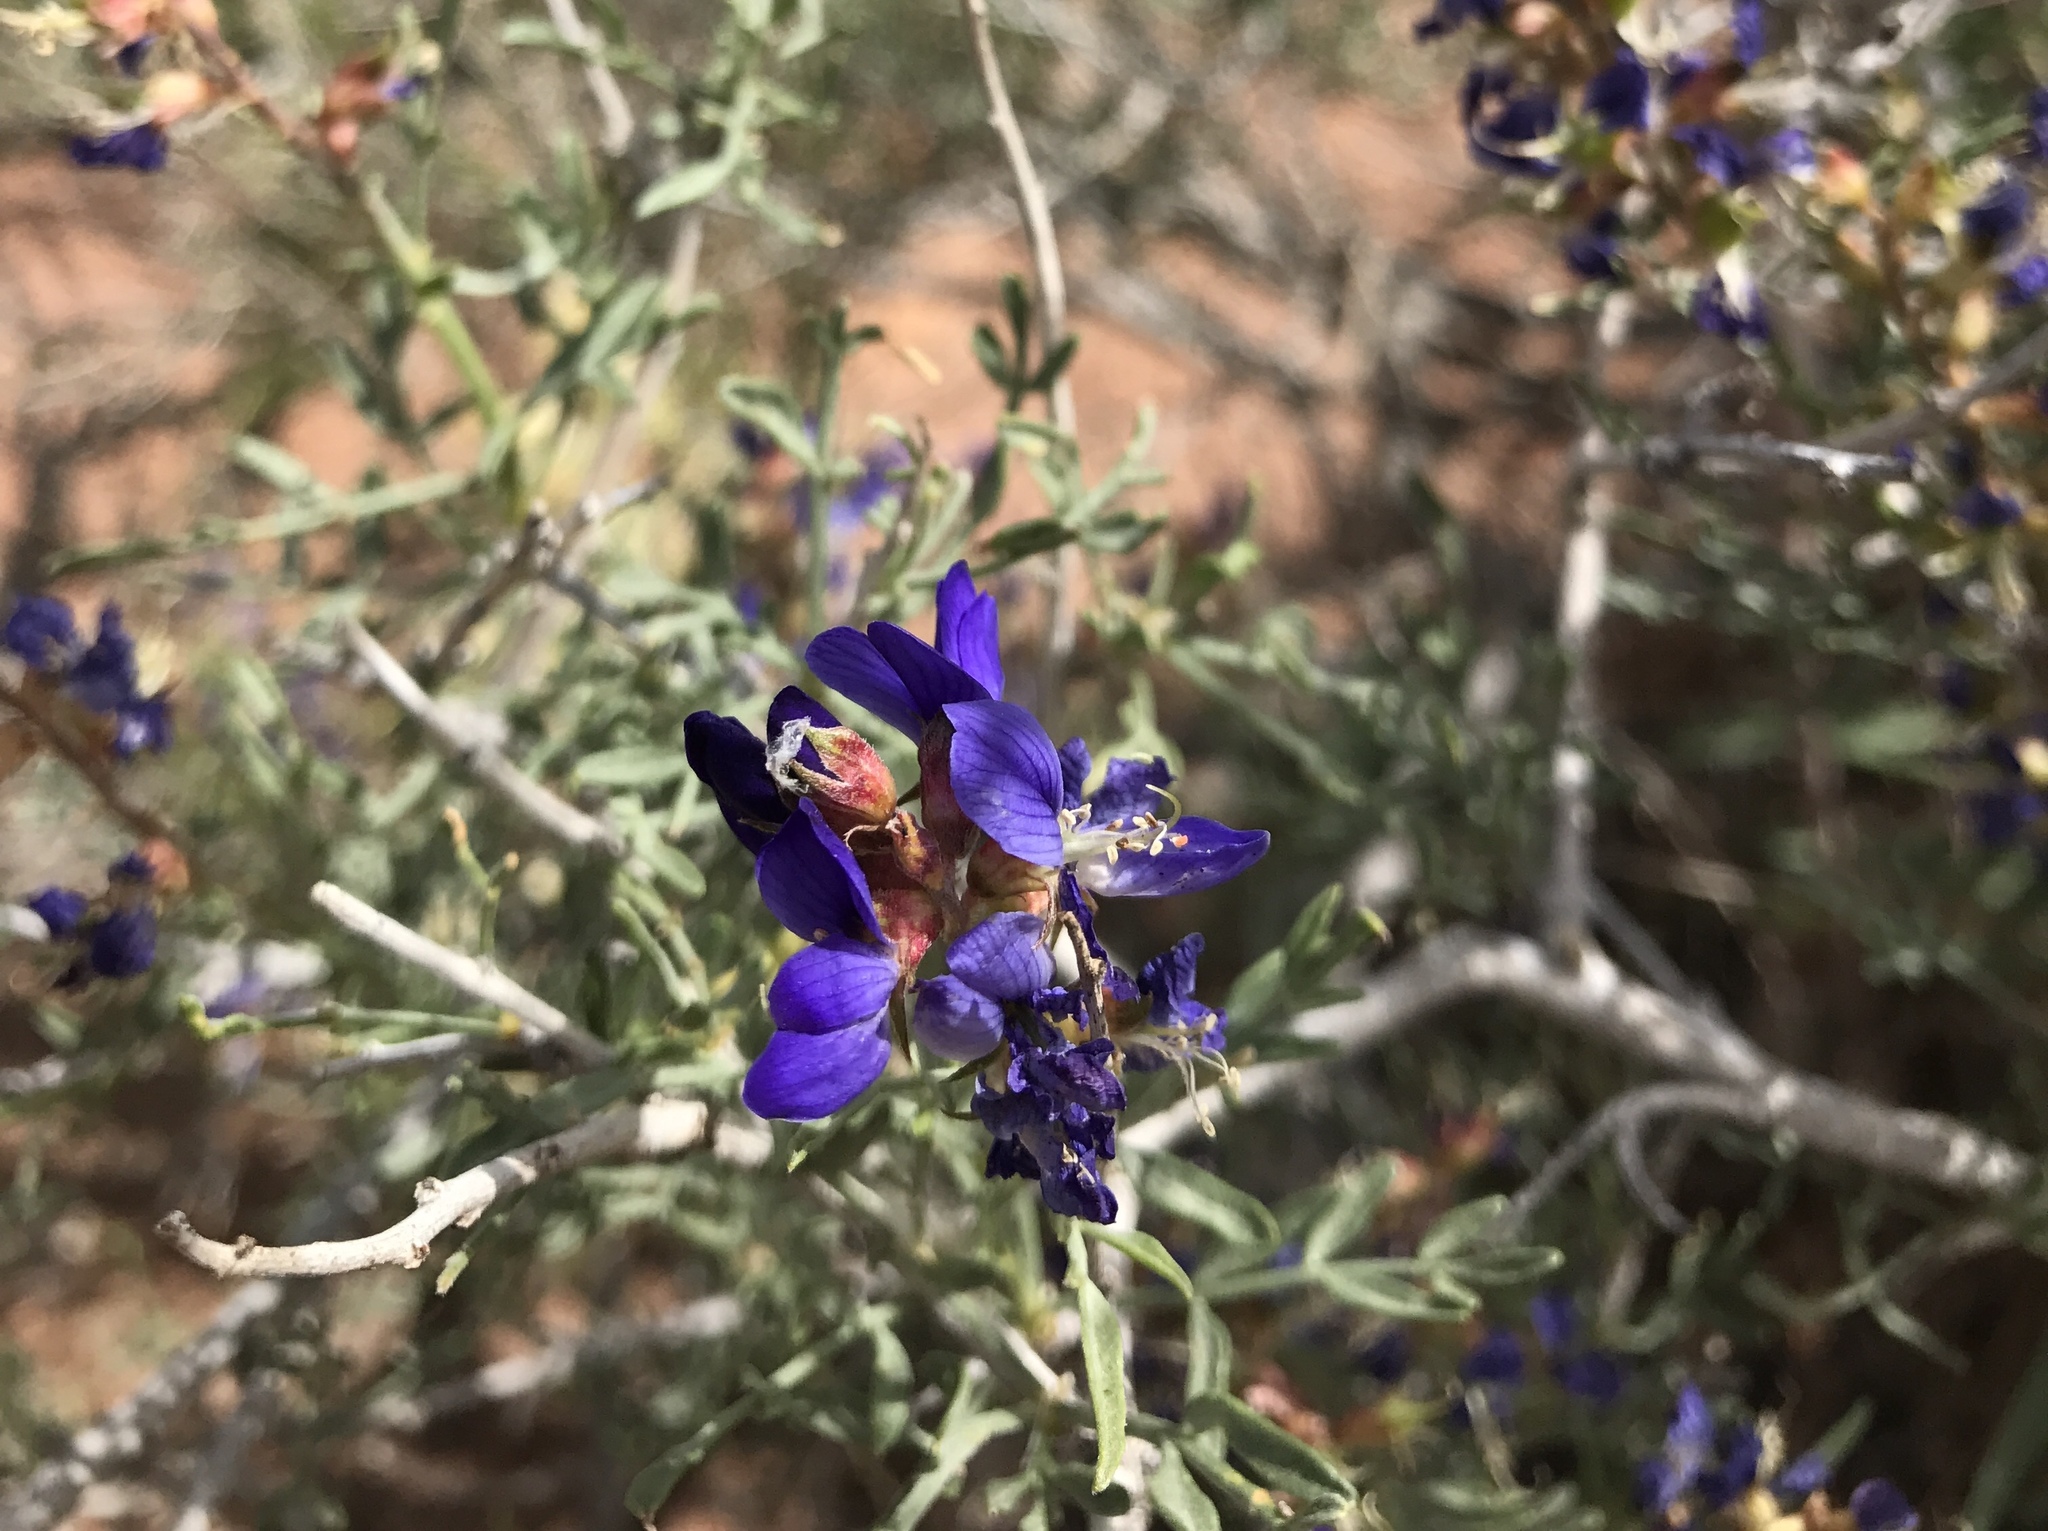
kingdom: Plantae
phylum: Tracheophyta
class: Magnoliopsida
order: Fabales
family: Fabaceae
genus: Psorothamnus
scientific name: Psorothamnus fremontii
